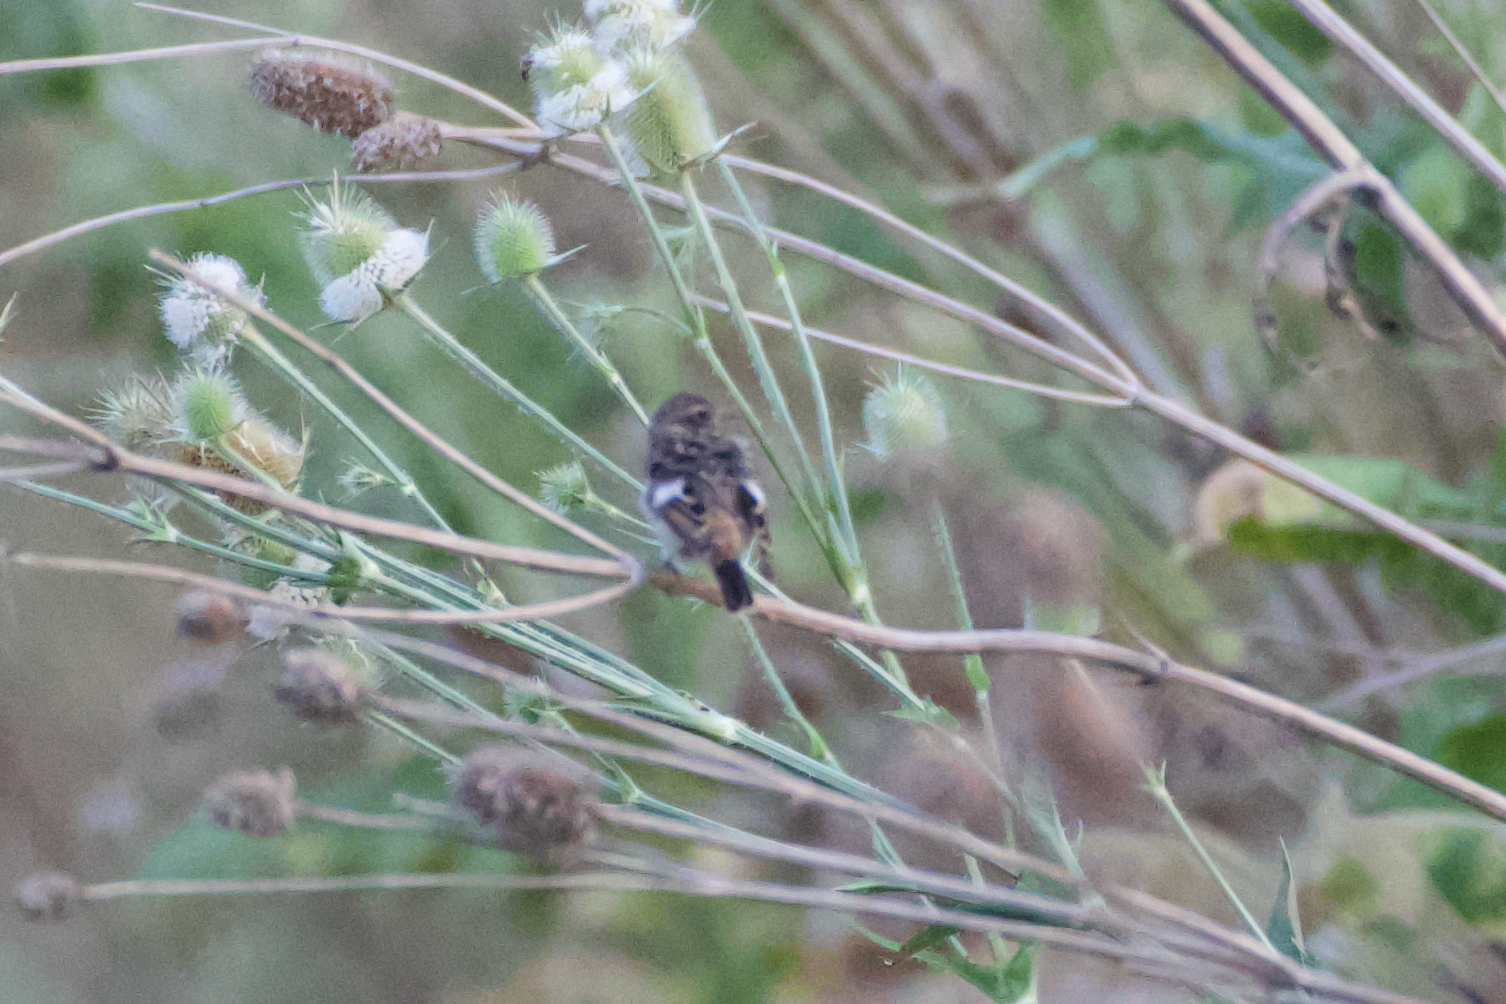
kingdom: Animalia
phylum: Chordata
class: Aves
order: Passeriformes
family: Muscicapidae
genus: Saxicola
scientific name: Saxicola rubicola
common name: European stonechat
